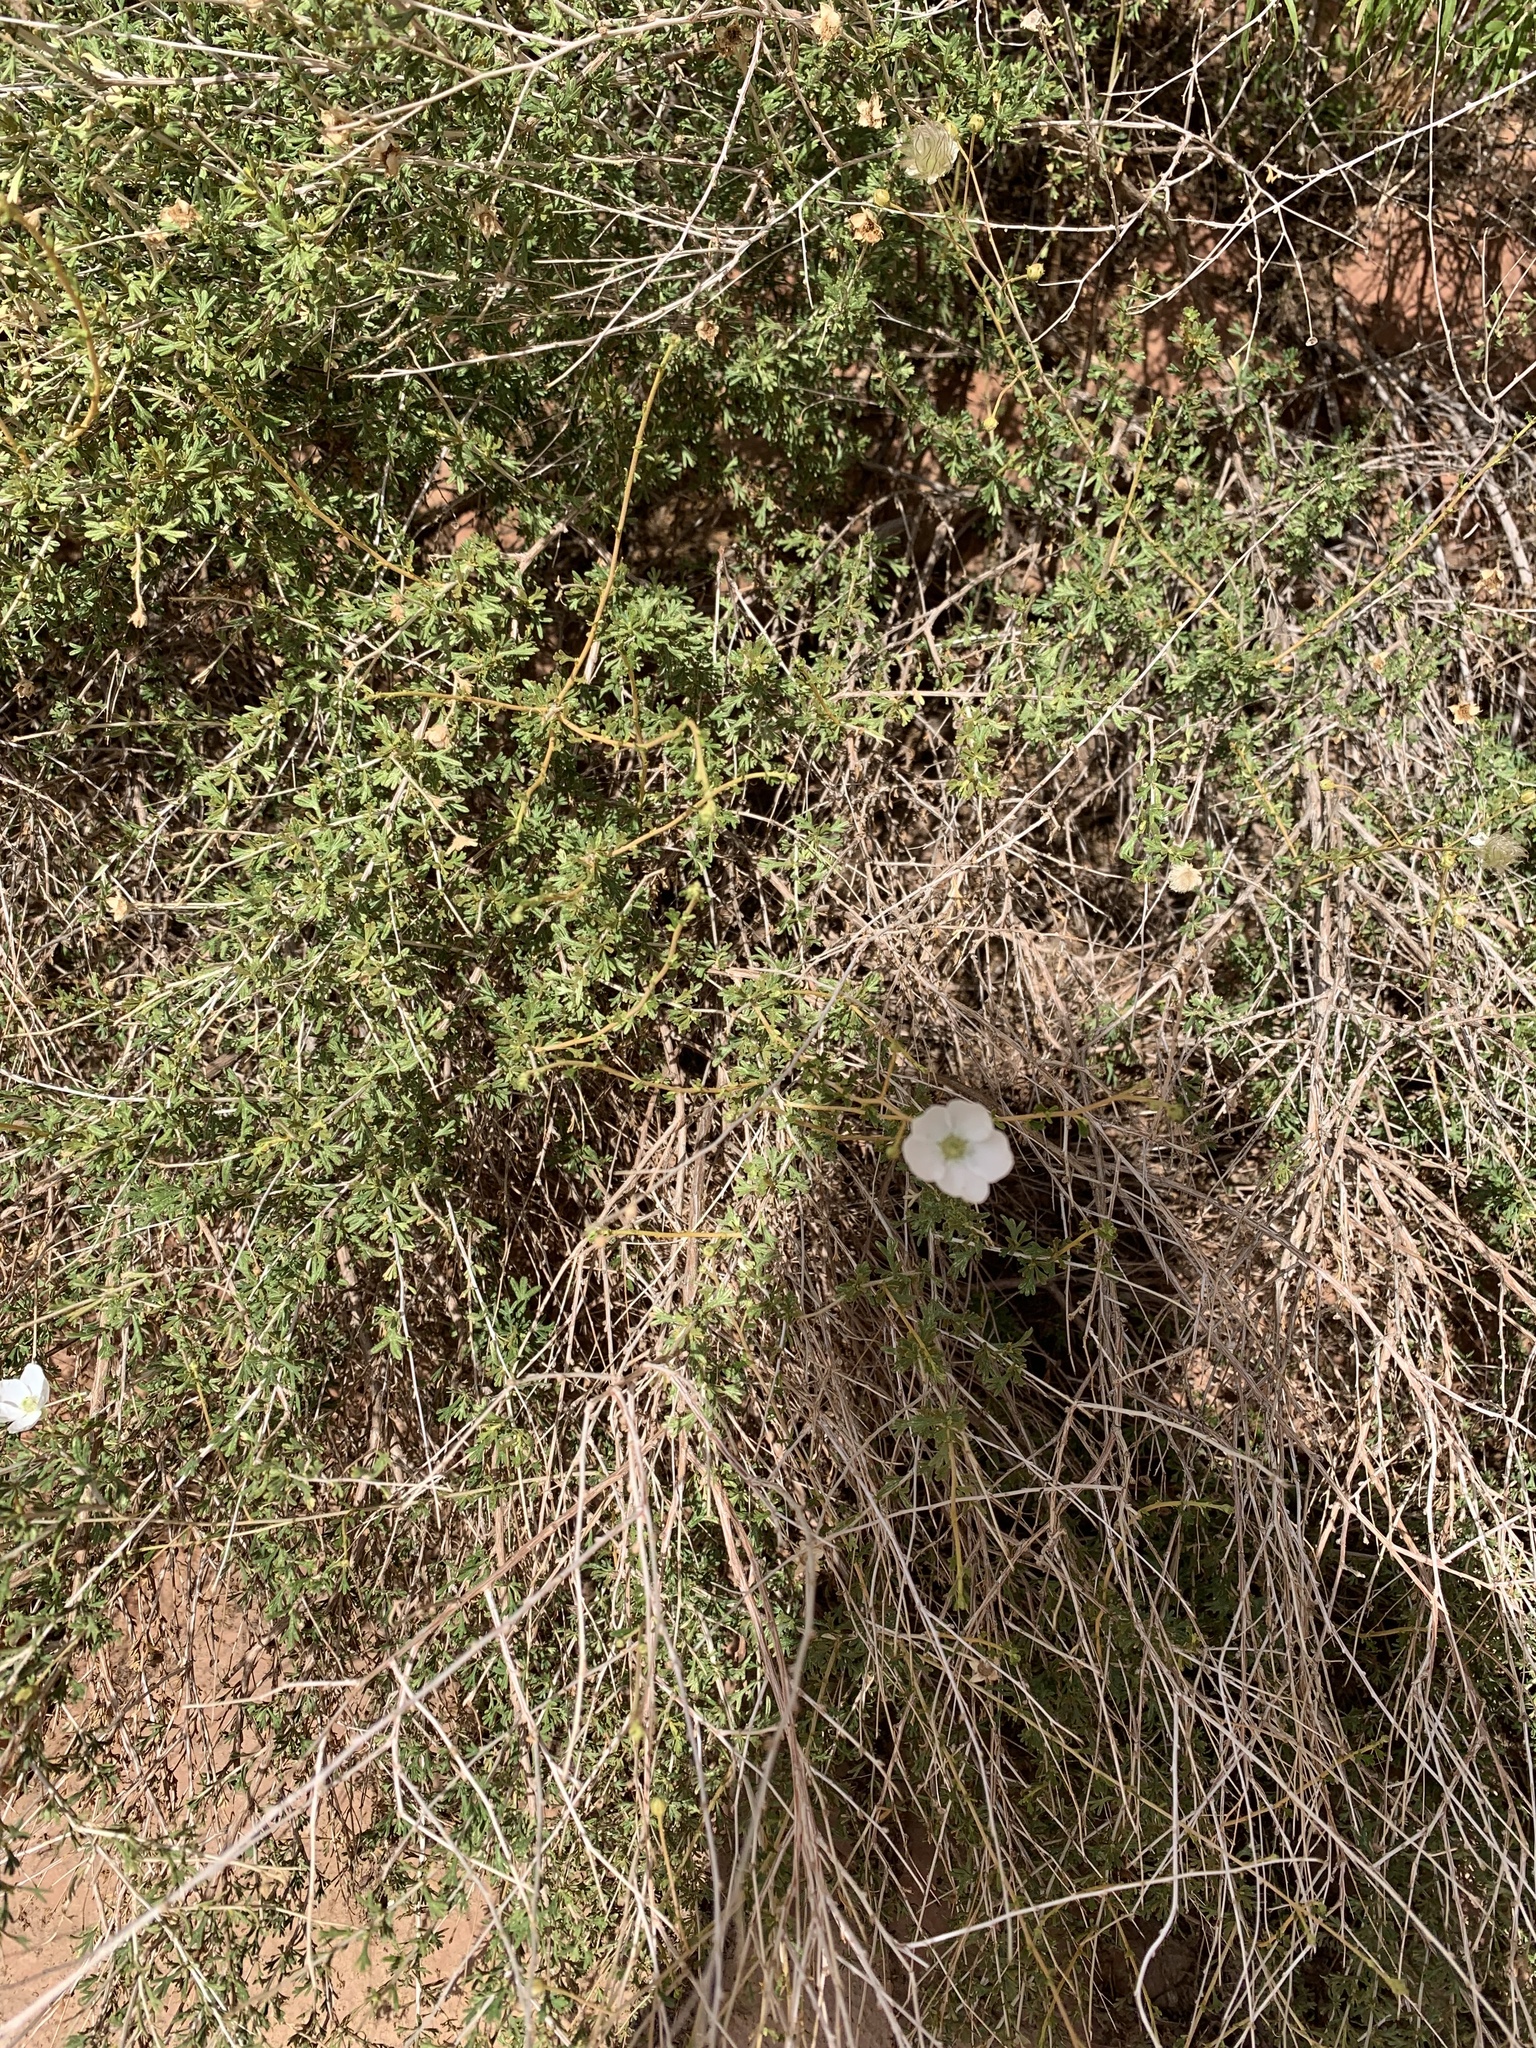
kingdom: Plantae
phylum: Tracheophyta
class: Magnoliopsida
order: Rosales
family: Rosaceae
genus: Fallugia
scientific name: Fallugia paradoxa
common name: Apache-plume
